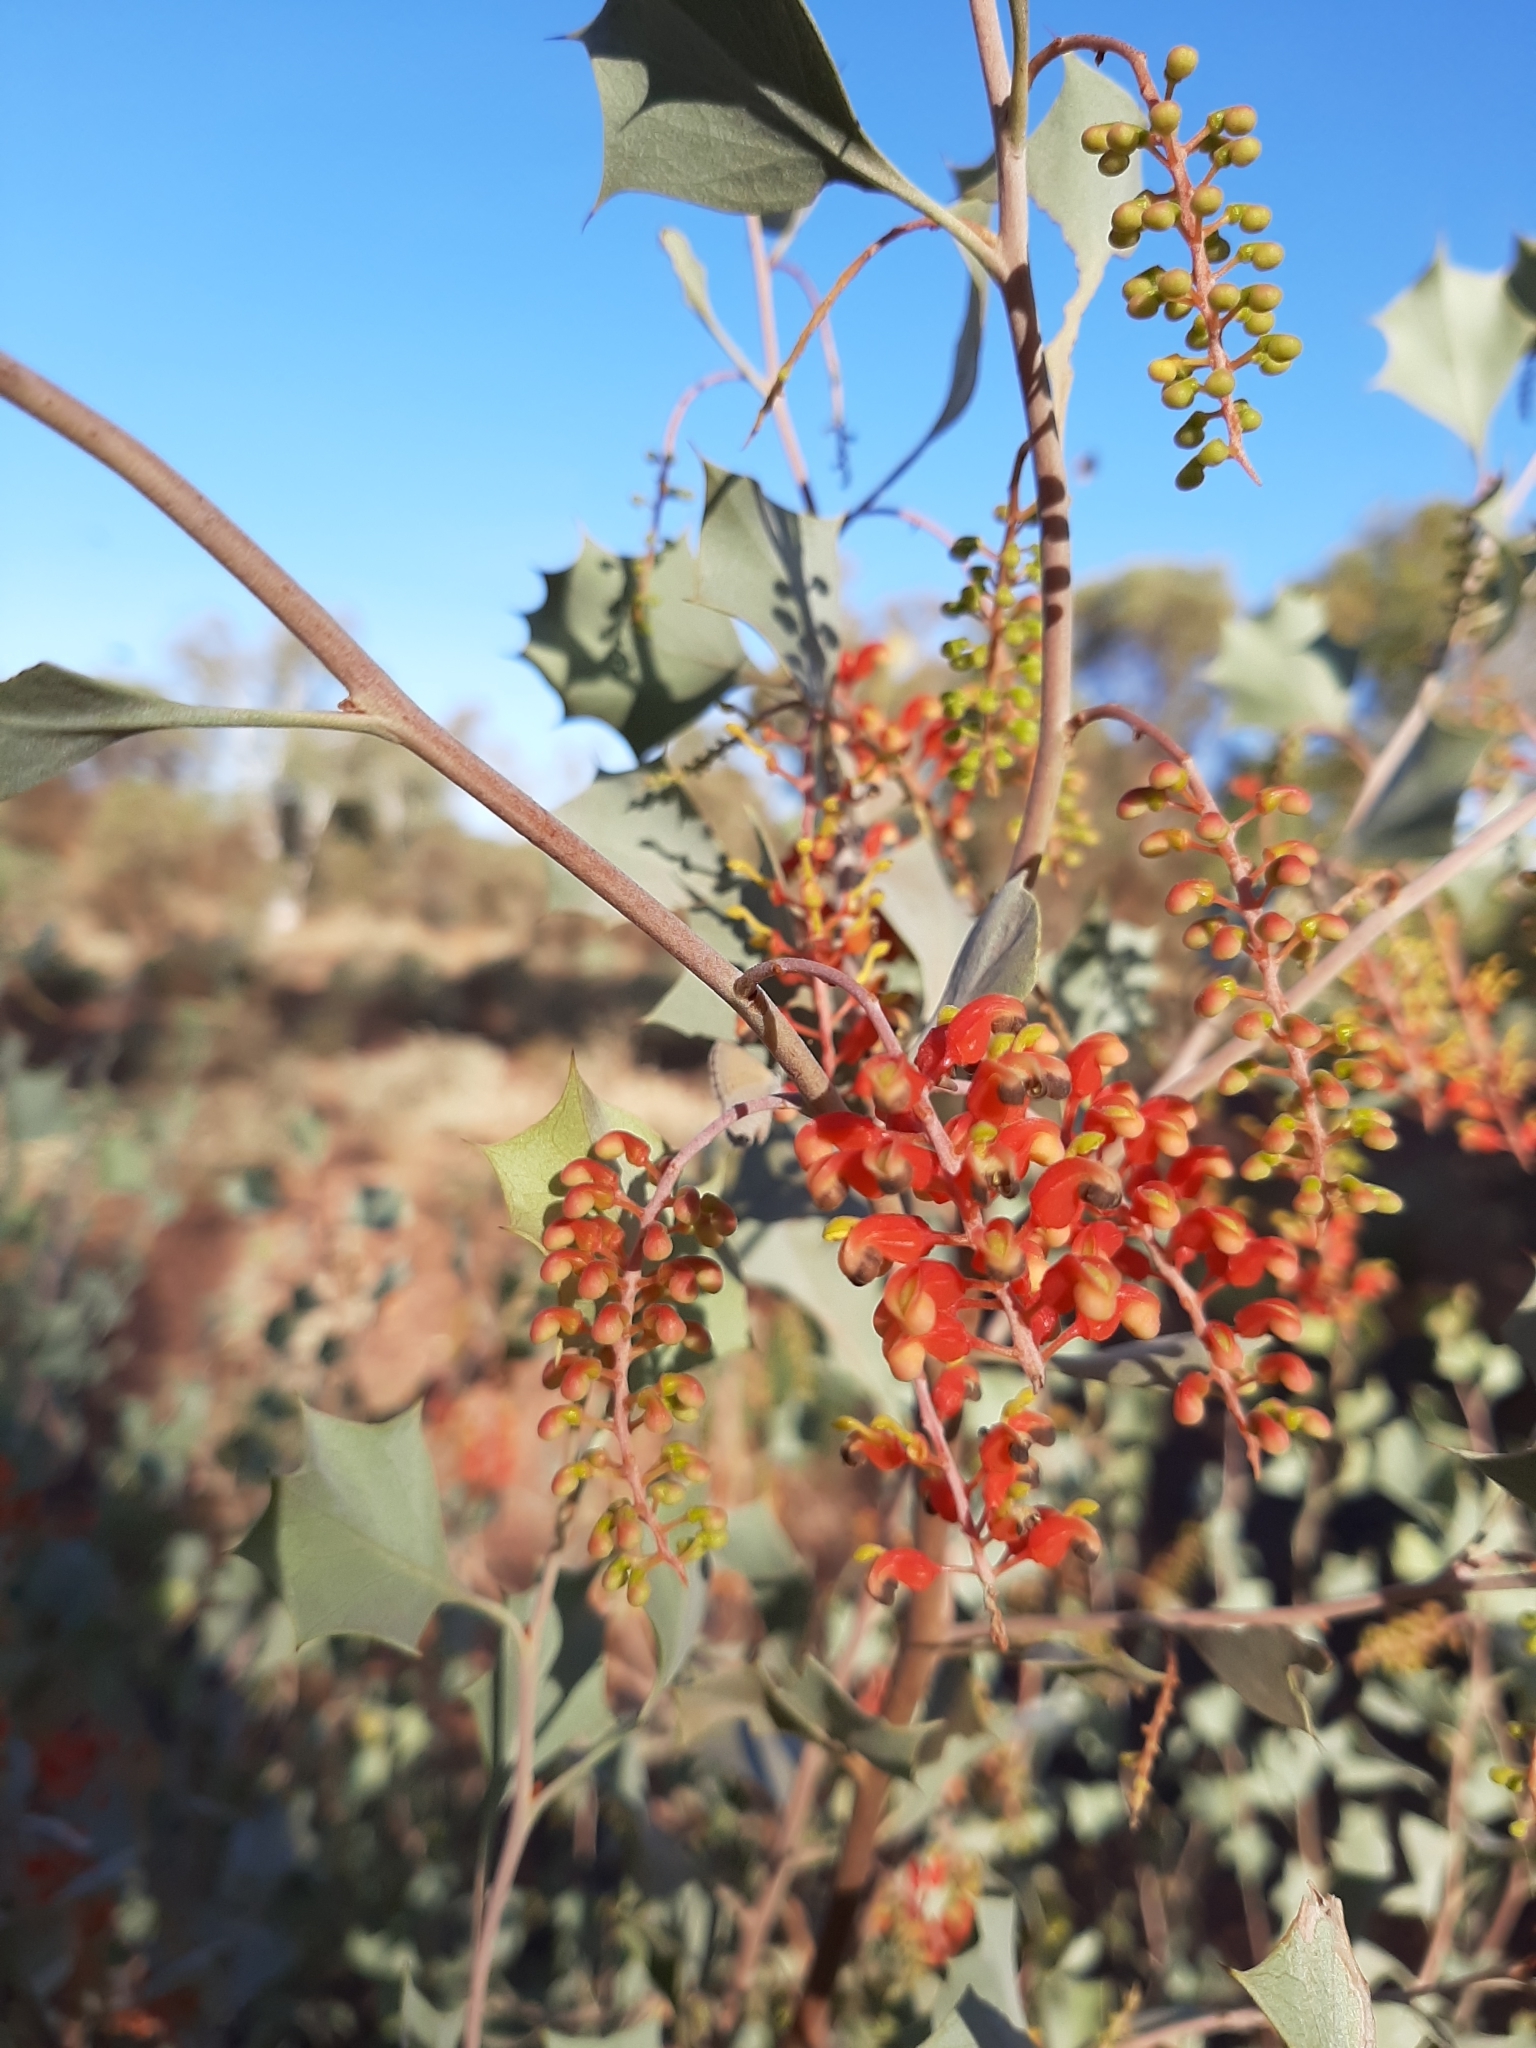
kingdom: Plantae
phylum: Tracheophyta
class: Magnoliopsida
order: Proteales
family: Proteaceae
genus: Grevillea
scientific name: Grevillea wickhamii
